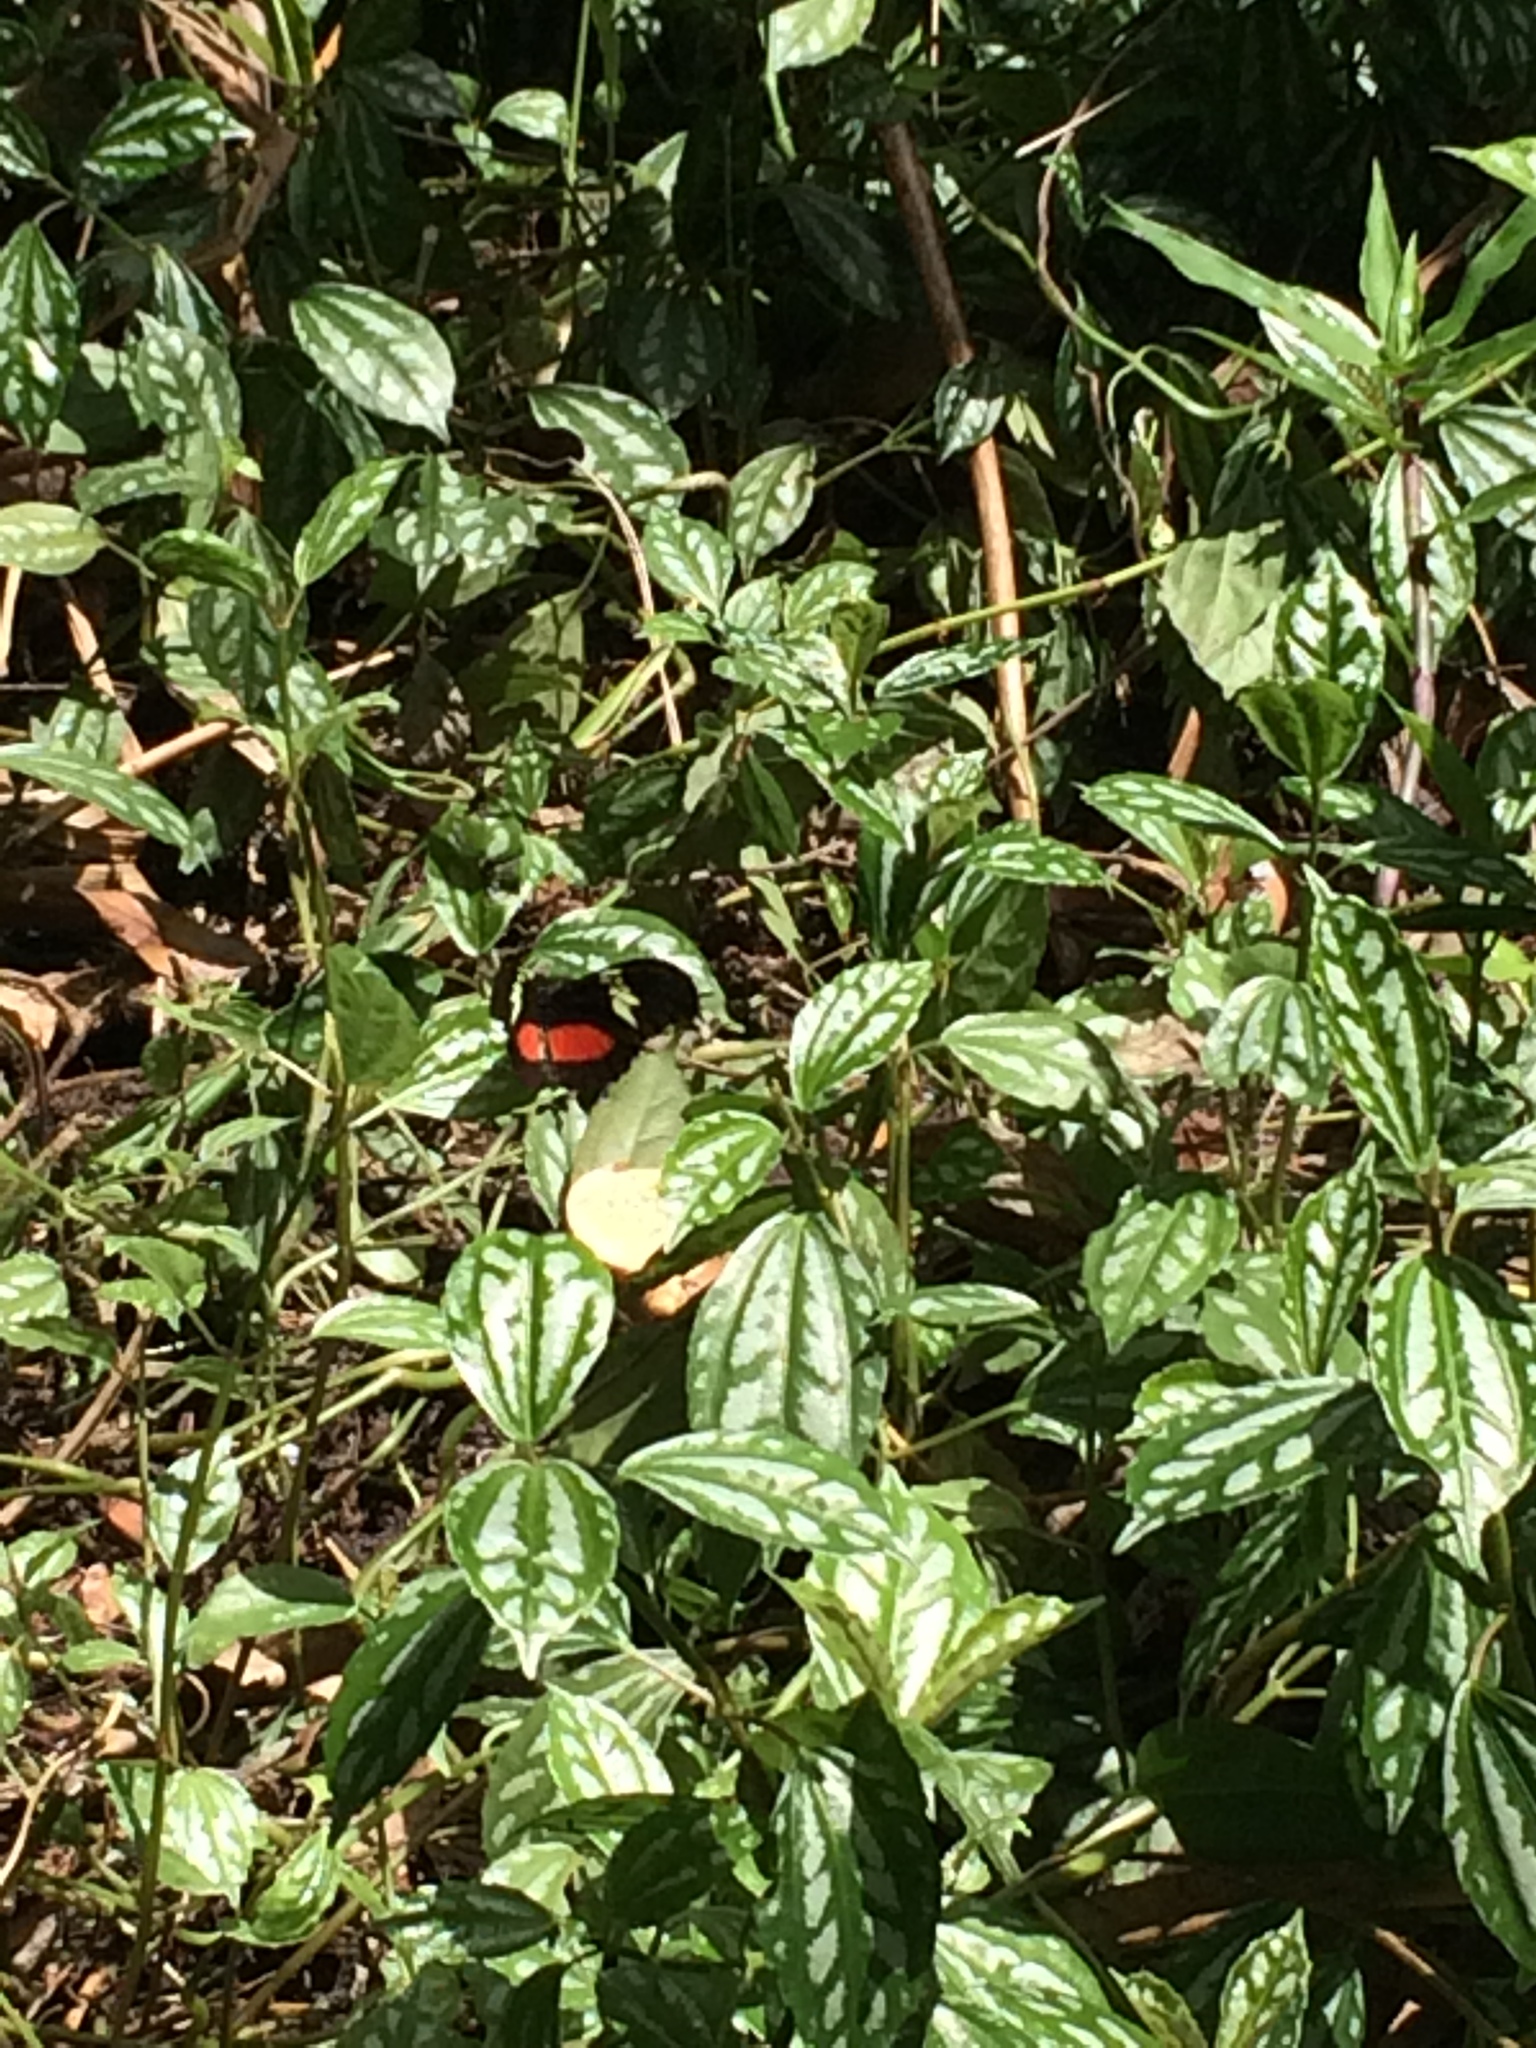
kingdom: Animalia
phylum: Arthropoda
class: Insecta
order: Lepidoptera
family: Nymphalidae
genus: Heliconius
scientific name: Heliconius hortense
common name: Mexican longwing
